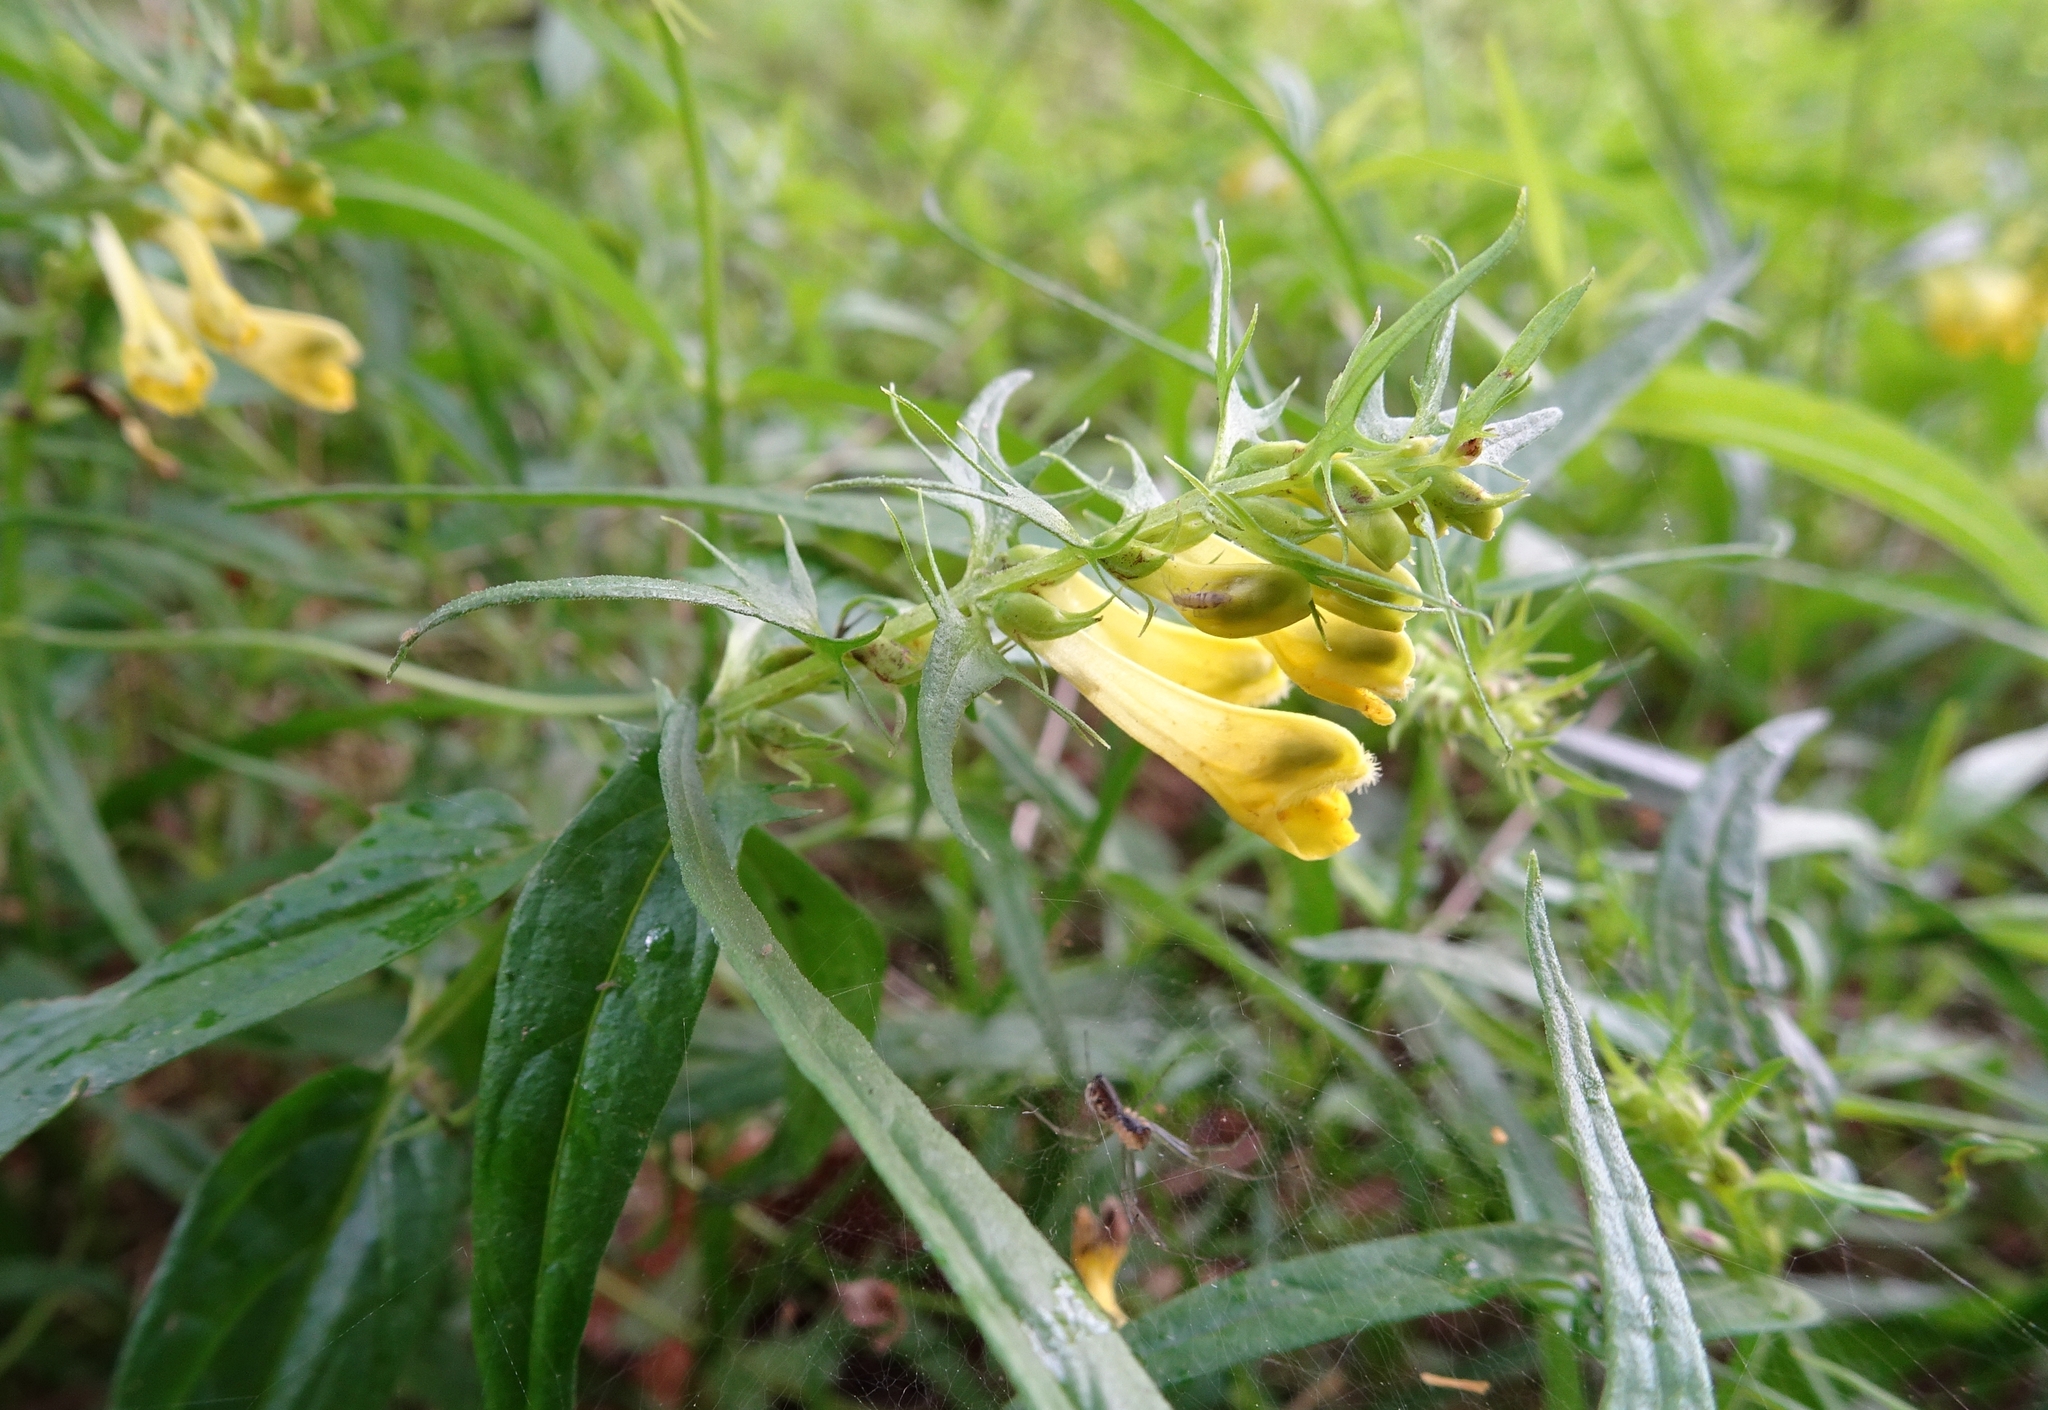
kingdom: Plantae
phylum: Tracheophyta
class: Magnoliopsida
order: Lamiales
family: Orobanchaceae
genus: Melampyrum
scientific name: Melampyrum pratense
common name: Common cow-wheat
